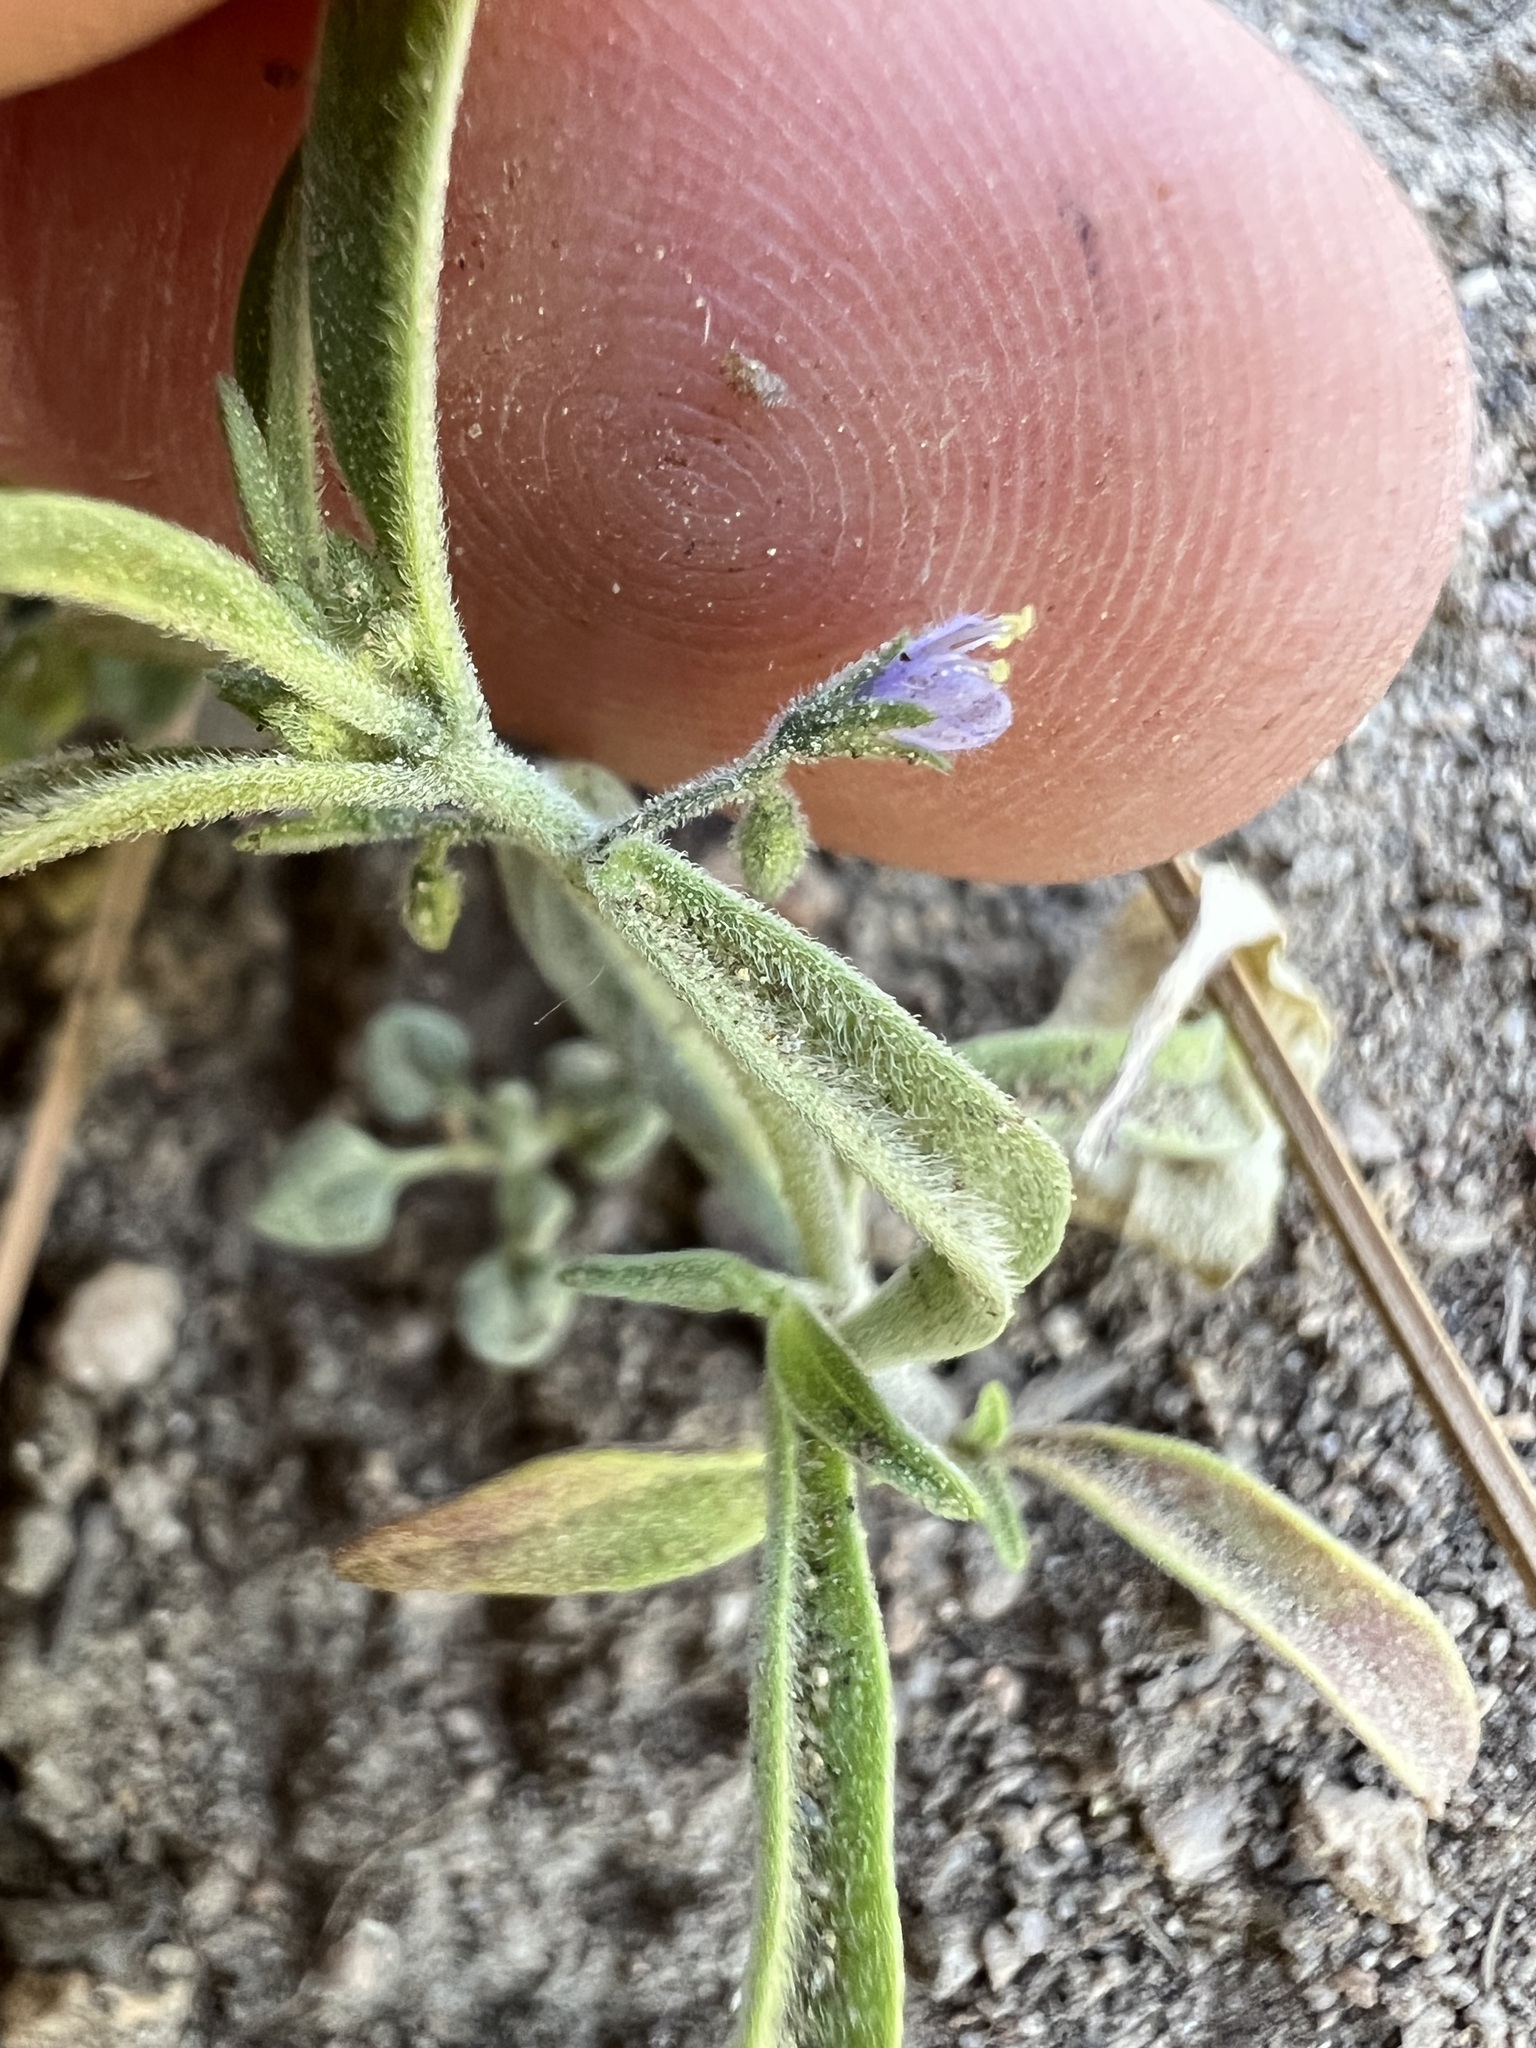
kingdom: Plantae
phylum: Tracheophyta
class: Magnoliopsida
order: Lamiales
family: Lamiaceae
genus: Trichostema
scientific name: Trichostema micranthum
